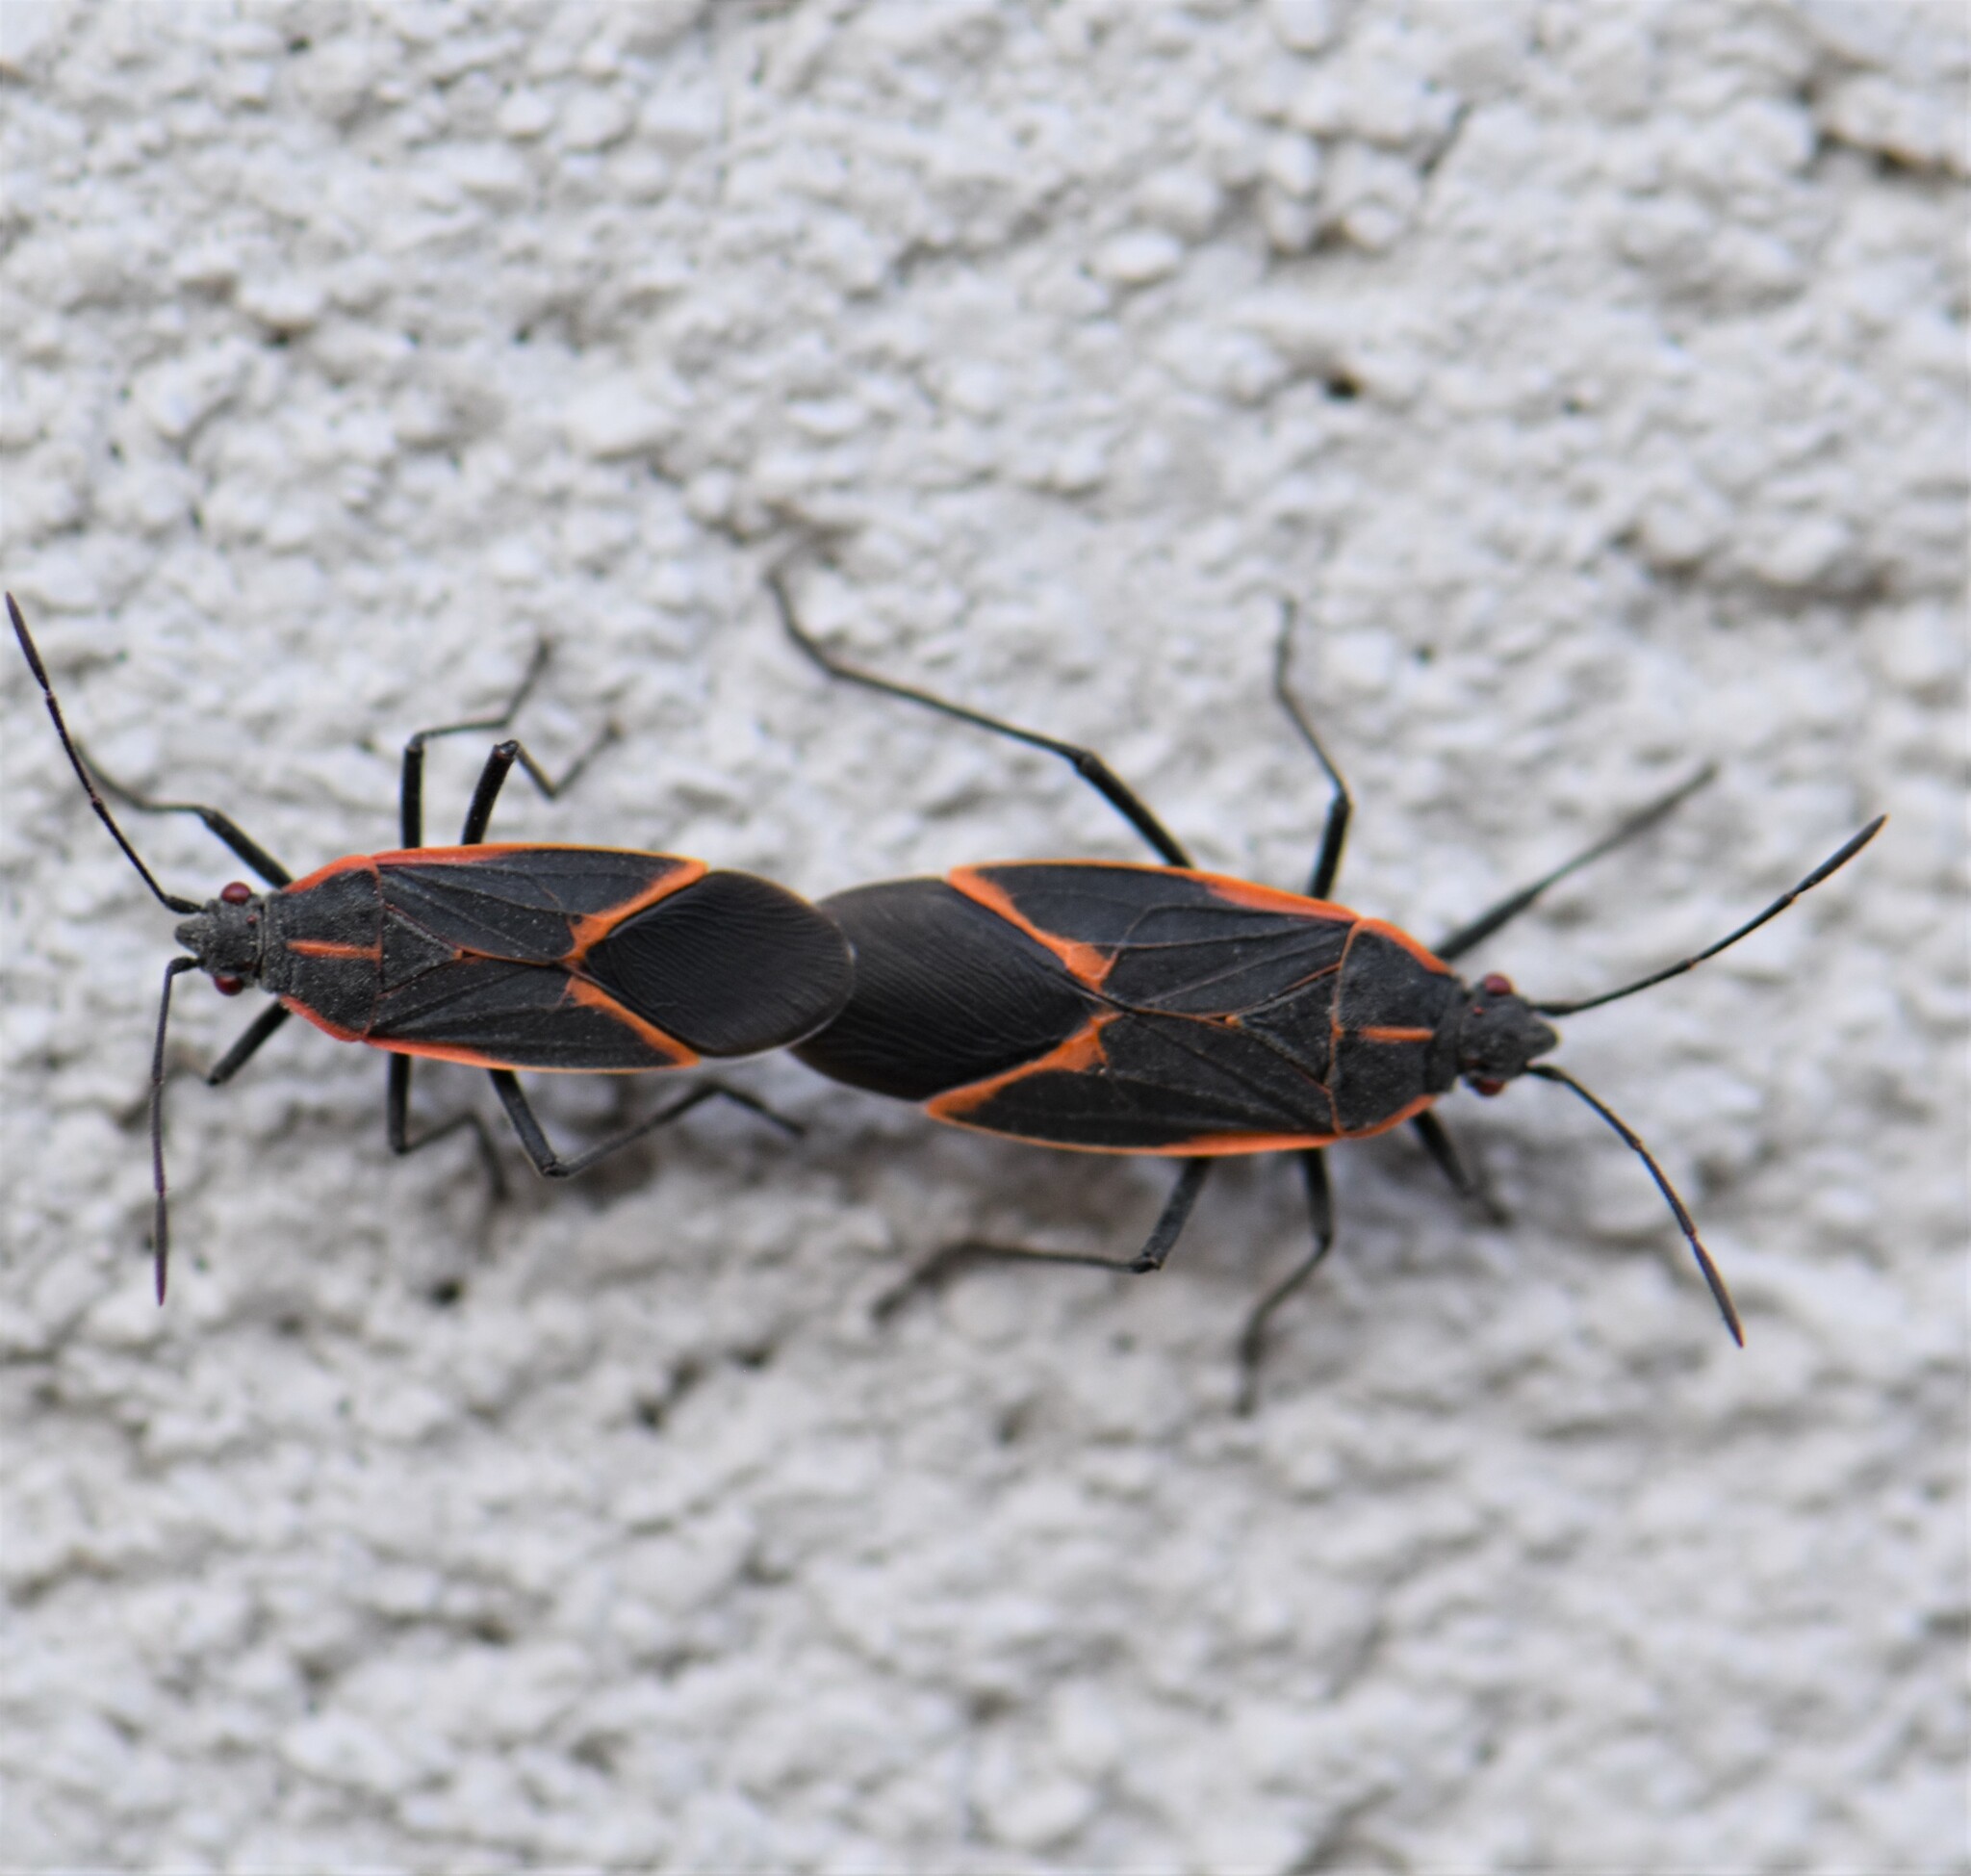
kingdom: Animalia
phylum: Arthropoda
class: Insecta
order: Hemiptera
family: Rhopalidae
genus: Boisea
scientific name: Boisea trivittata
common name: Boxelder bug
